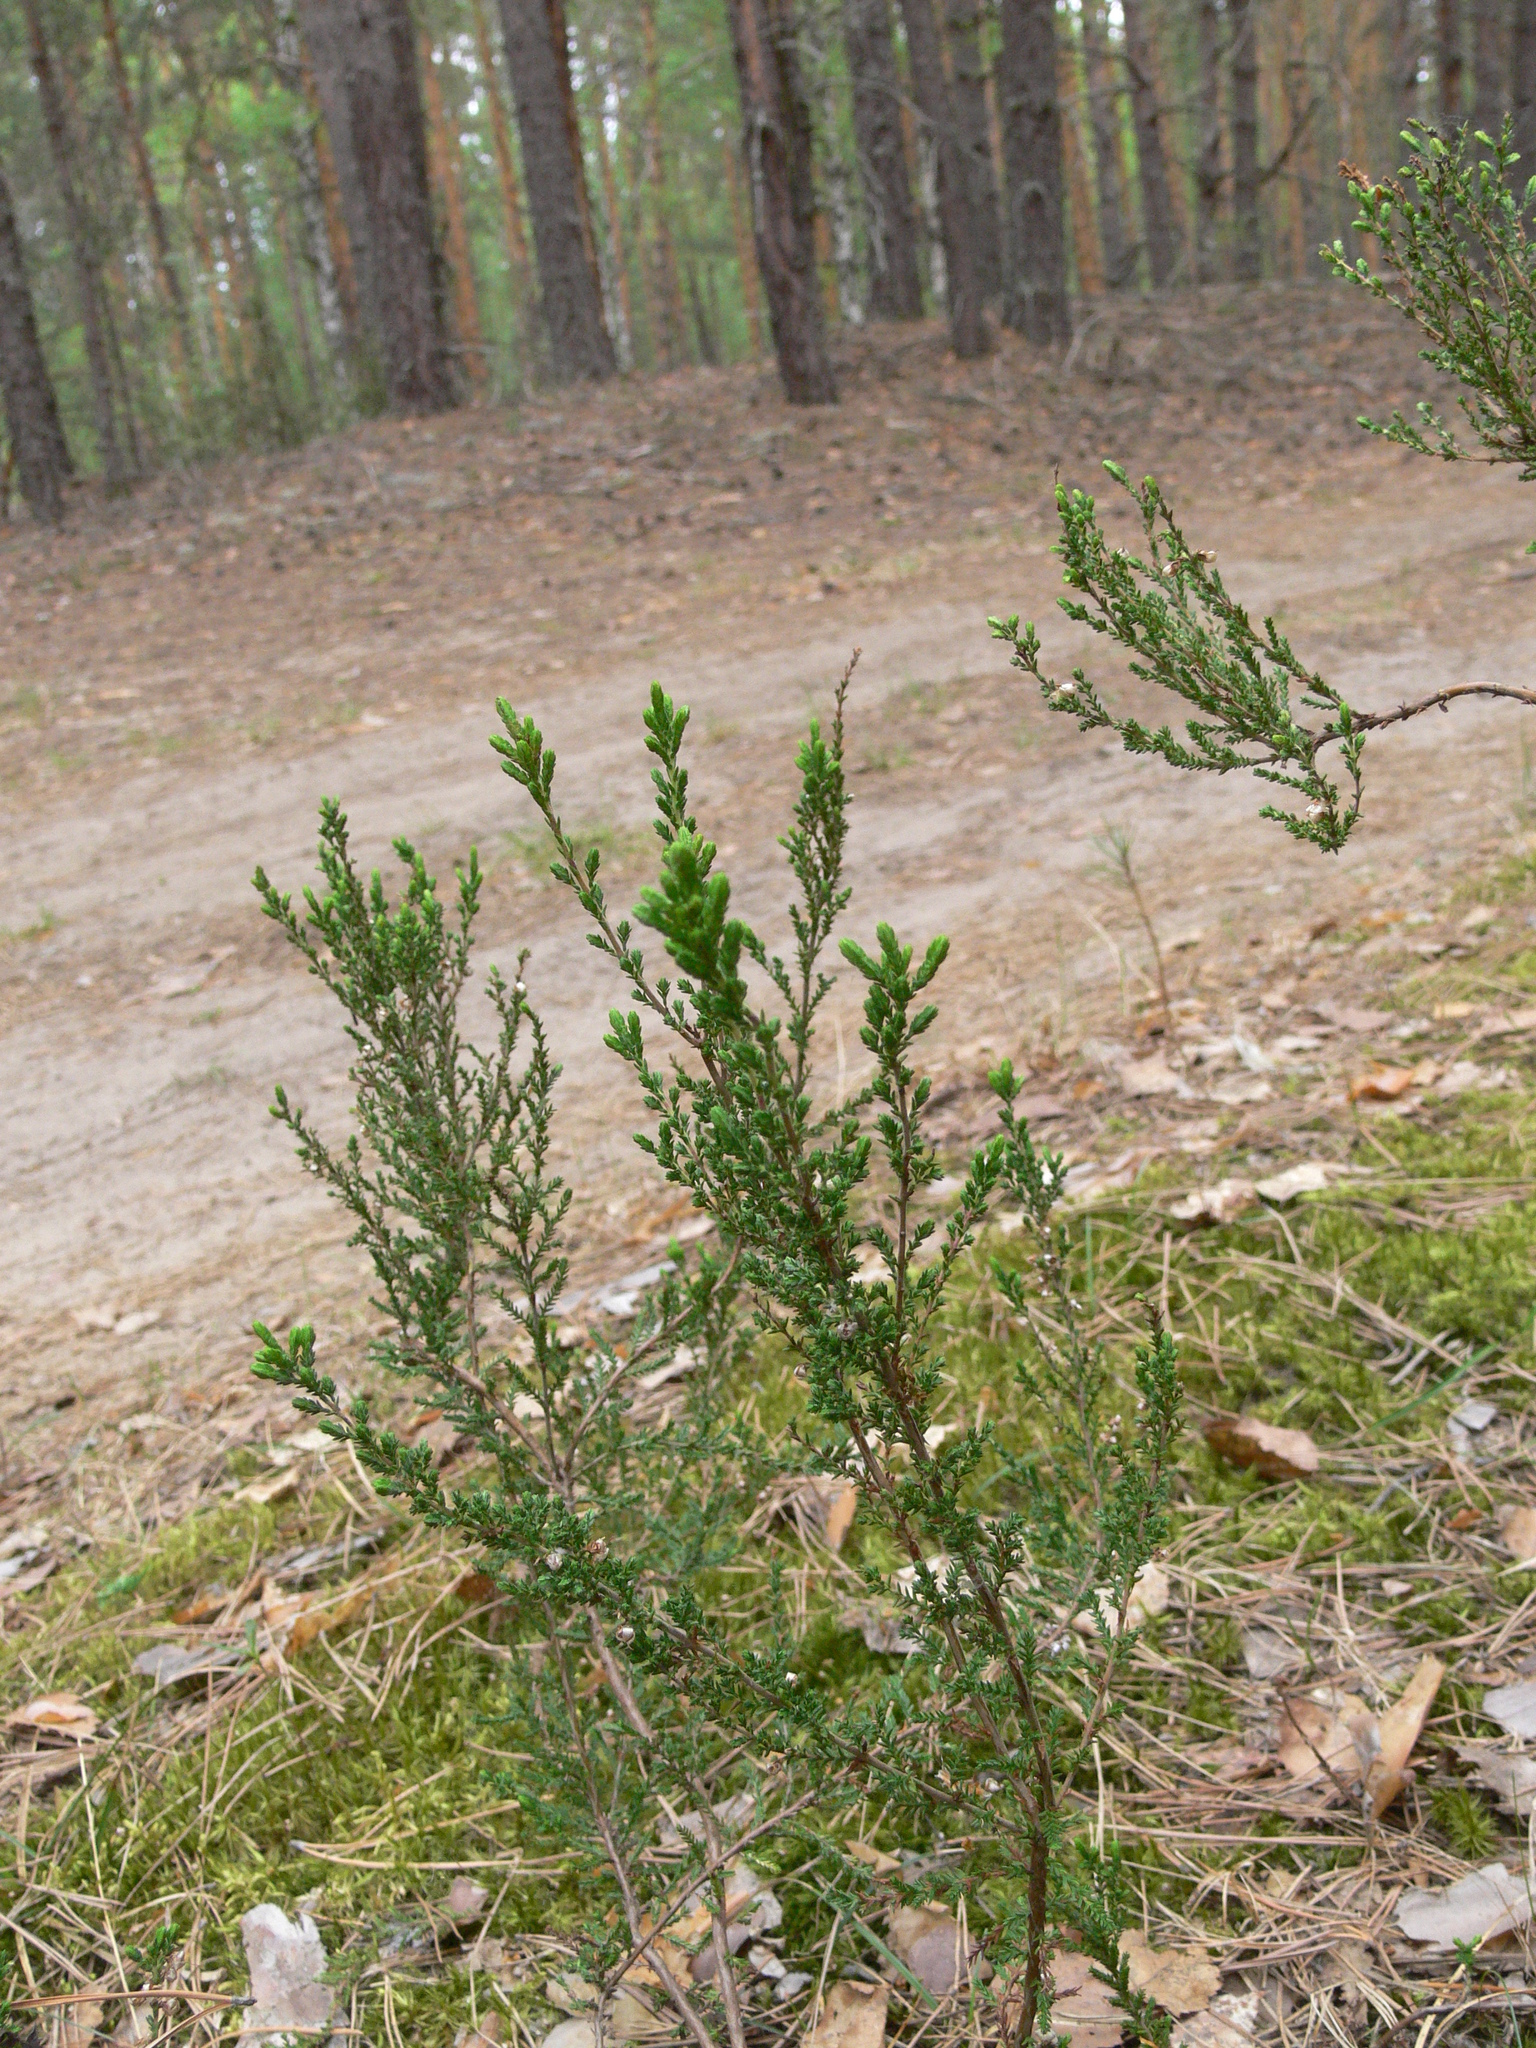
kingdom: Plantae
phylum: Tracheophyta
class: Magnoliopsida
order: Ericales
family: Ericaceae
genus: Calluna
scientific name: Calluna vulgaris
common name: Heather
